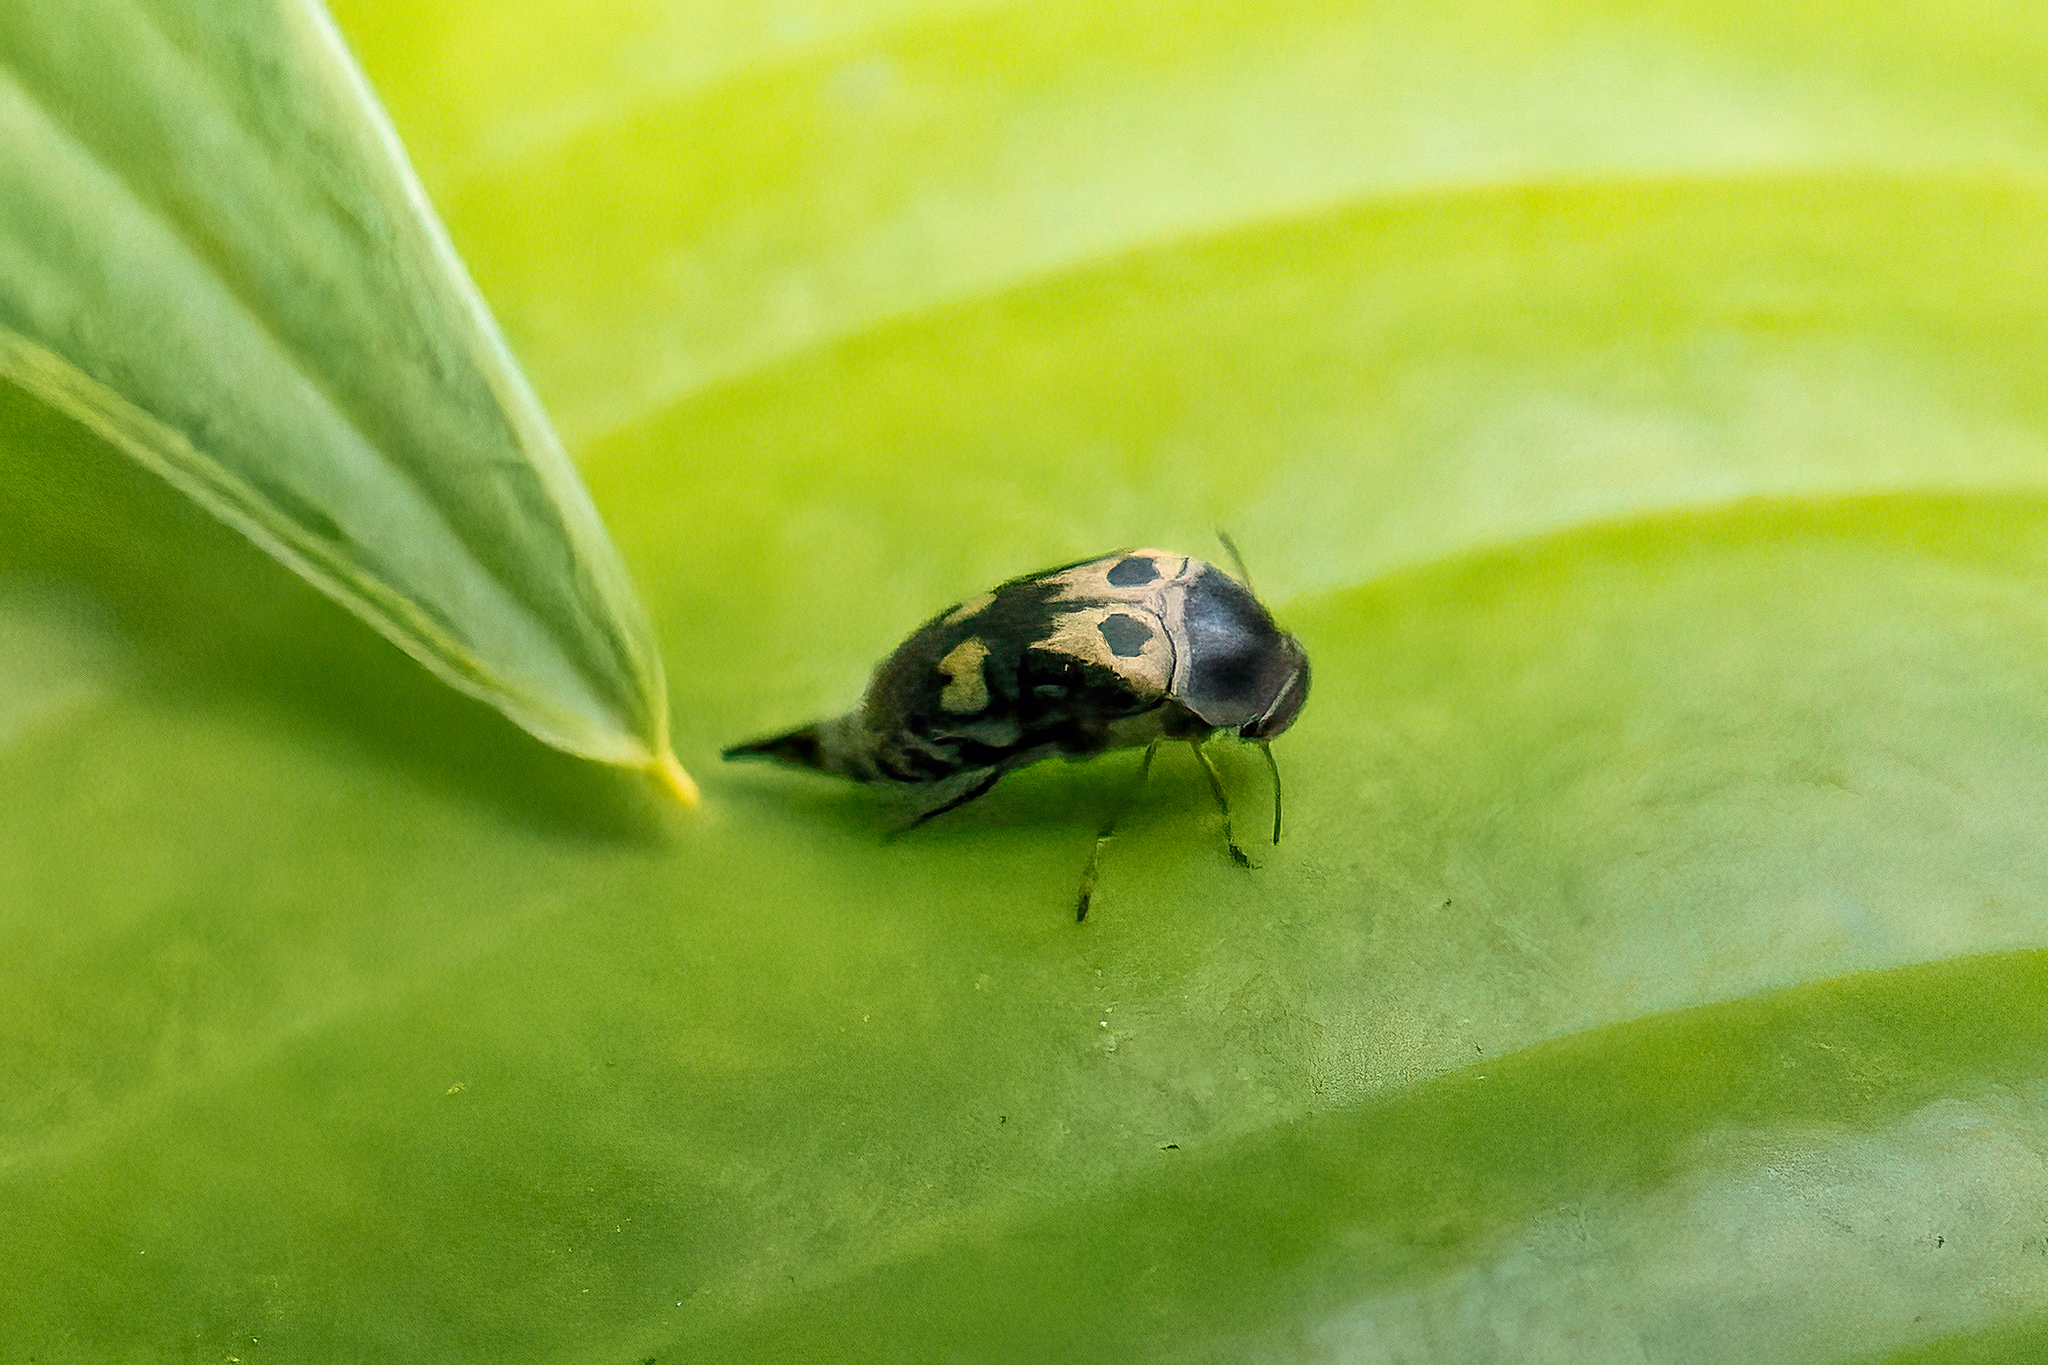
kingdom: Animalia
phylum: Arthropoda
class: Insecta
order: Coleoptera
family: Mordellidae
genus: Glipa
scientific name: Glipa oculata
